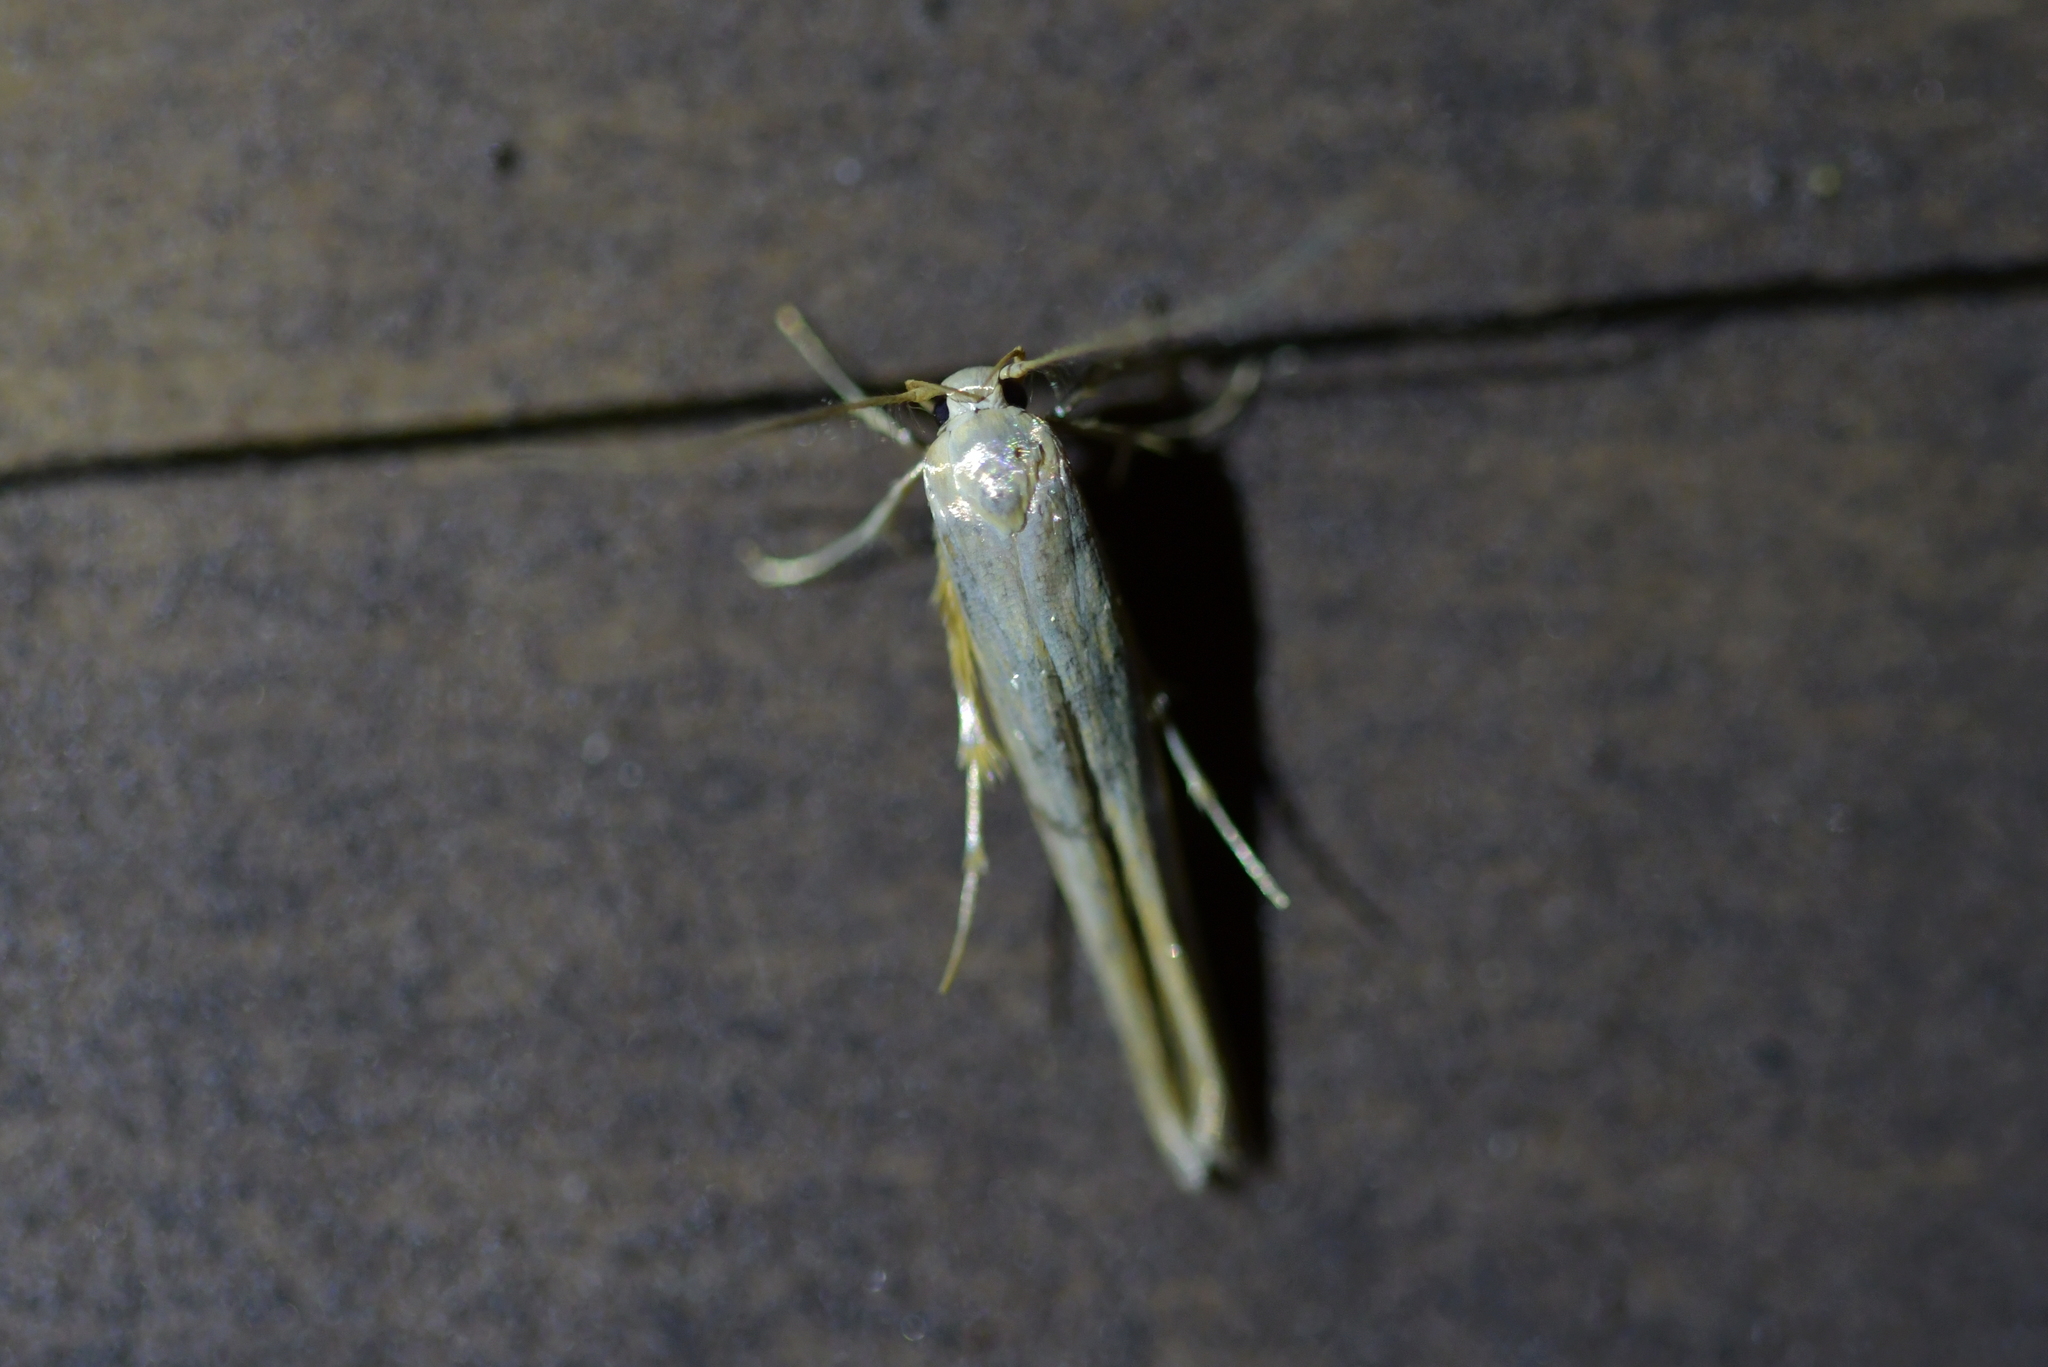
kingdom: Animalia
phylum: Arthropoda
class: Insecta
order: Lepidoptera
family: Stathmopodidae
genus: Stathmopoda
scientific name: Stathmopoda horticola
